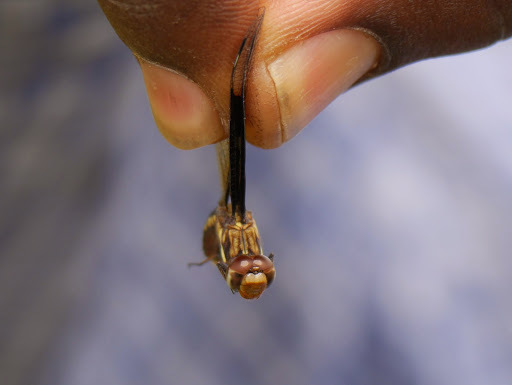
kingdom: Animalia
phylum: Arthropoda
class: Insecta
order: Odonata
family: Libellulidae
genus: Palpopleura
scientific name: Palpopleura lucia
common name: Lucia widow
